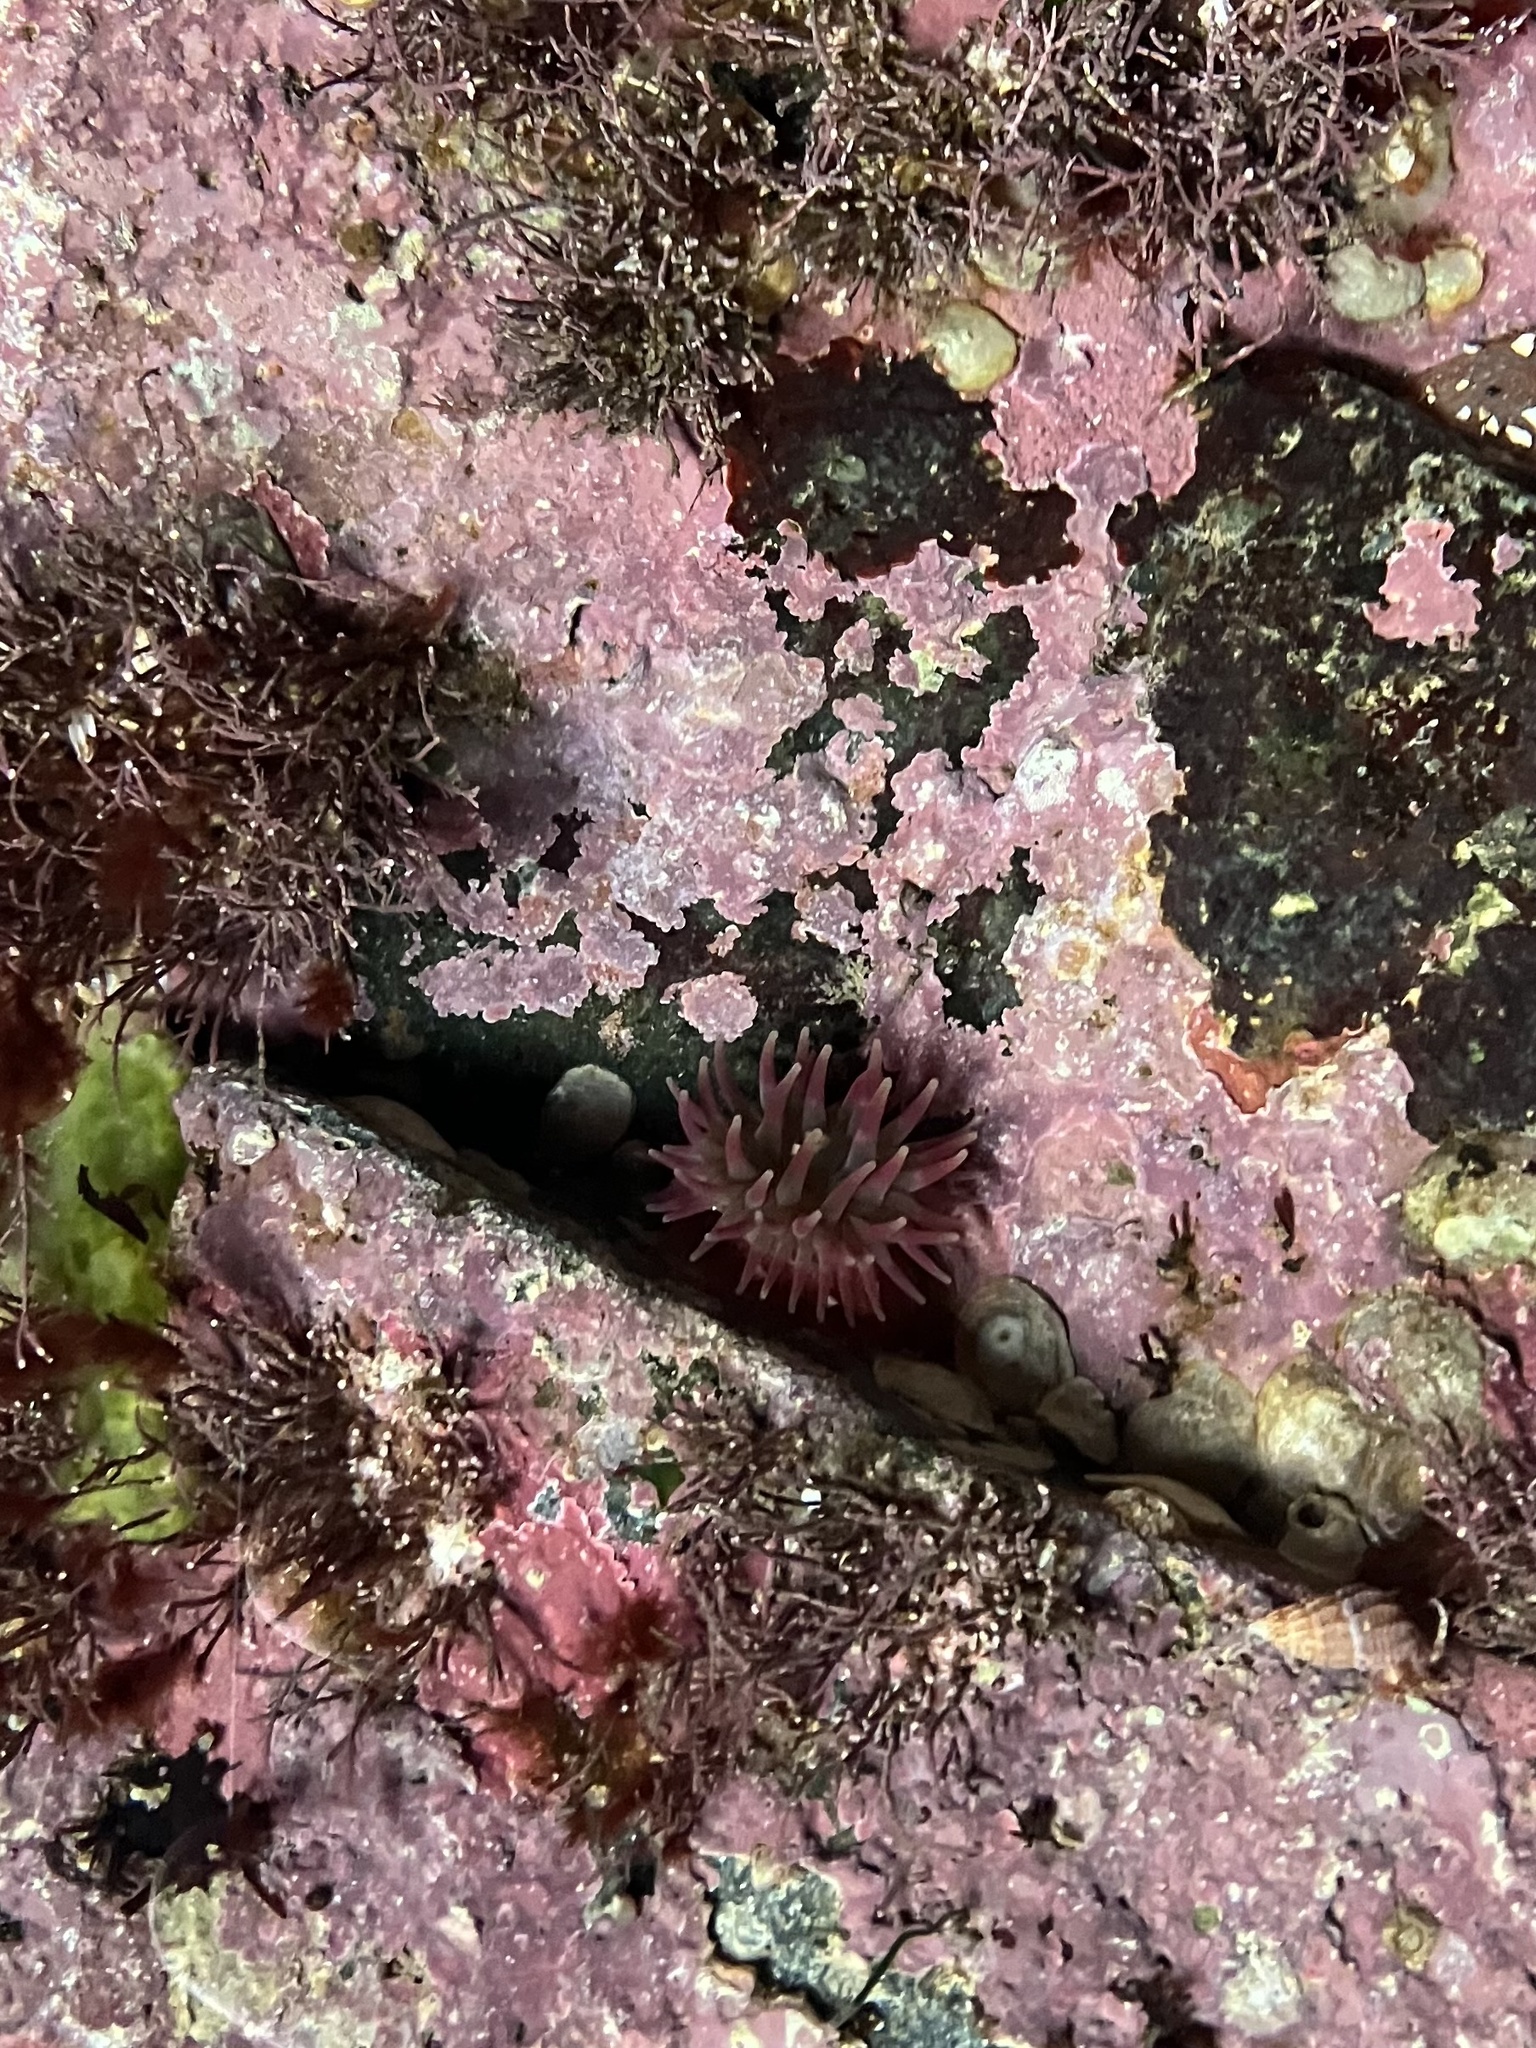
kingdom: Animalia
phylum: Cnidaria
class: Anthozoa
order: Actiniaria
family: Actiniidae
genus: Urticina
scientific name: Urticina crassicornis
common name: Mottled anemone
